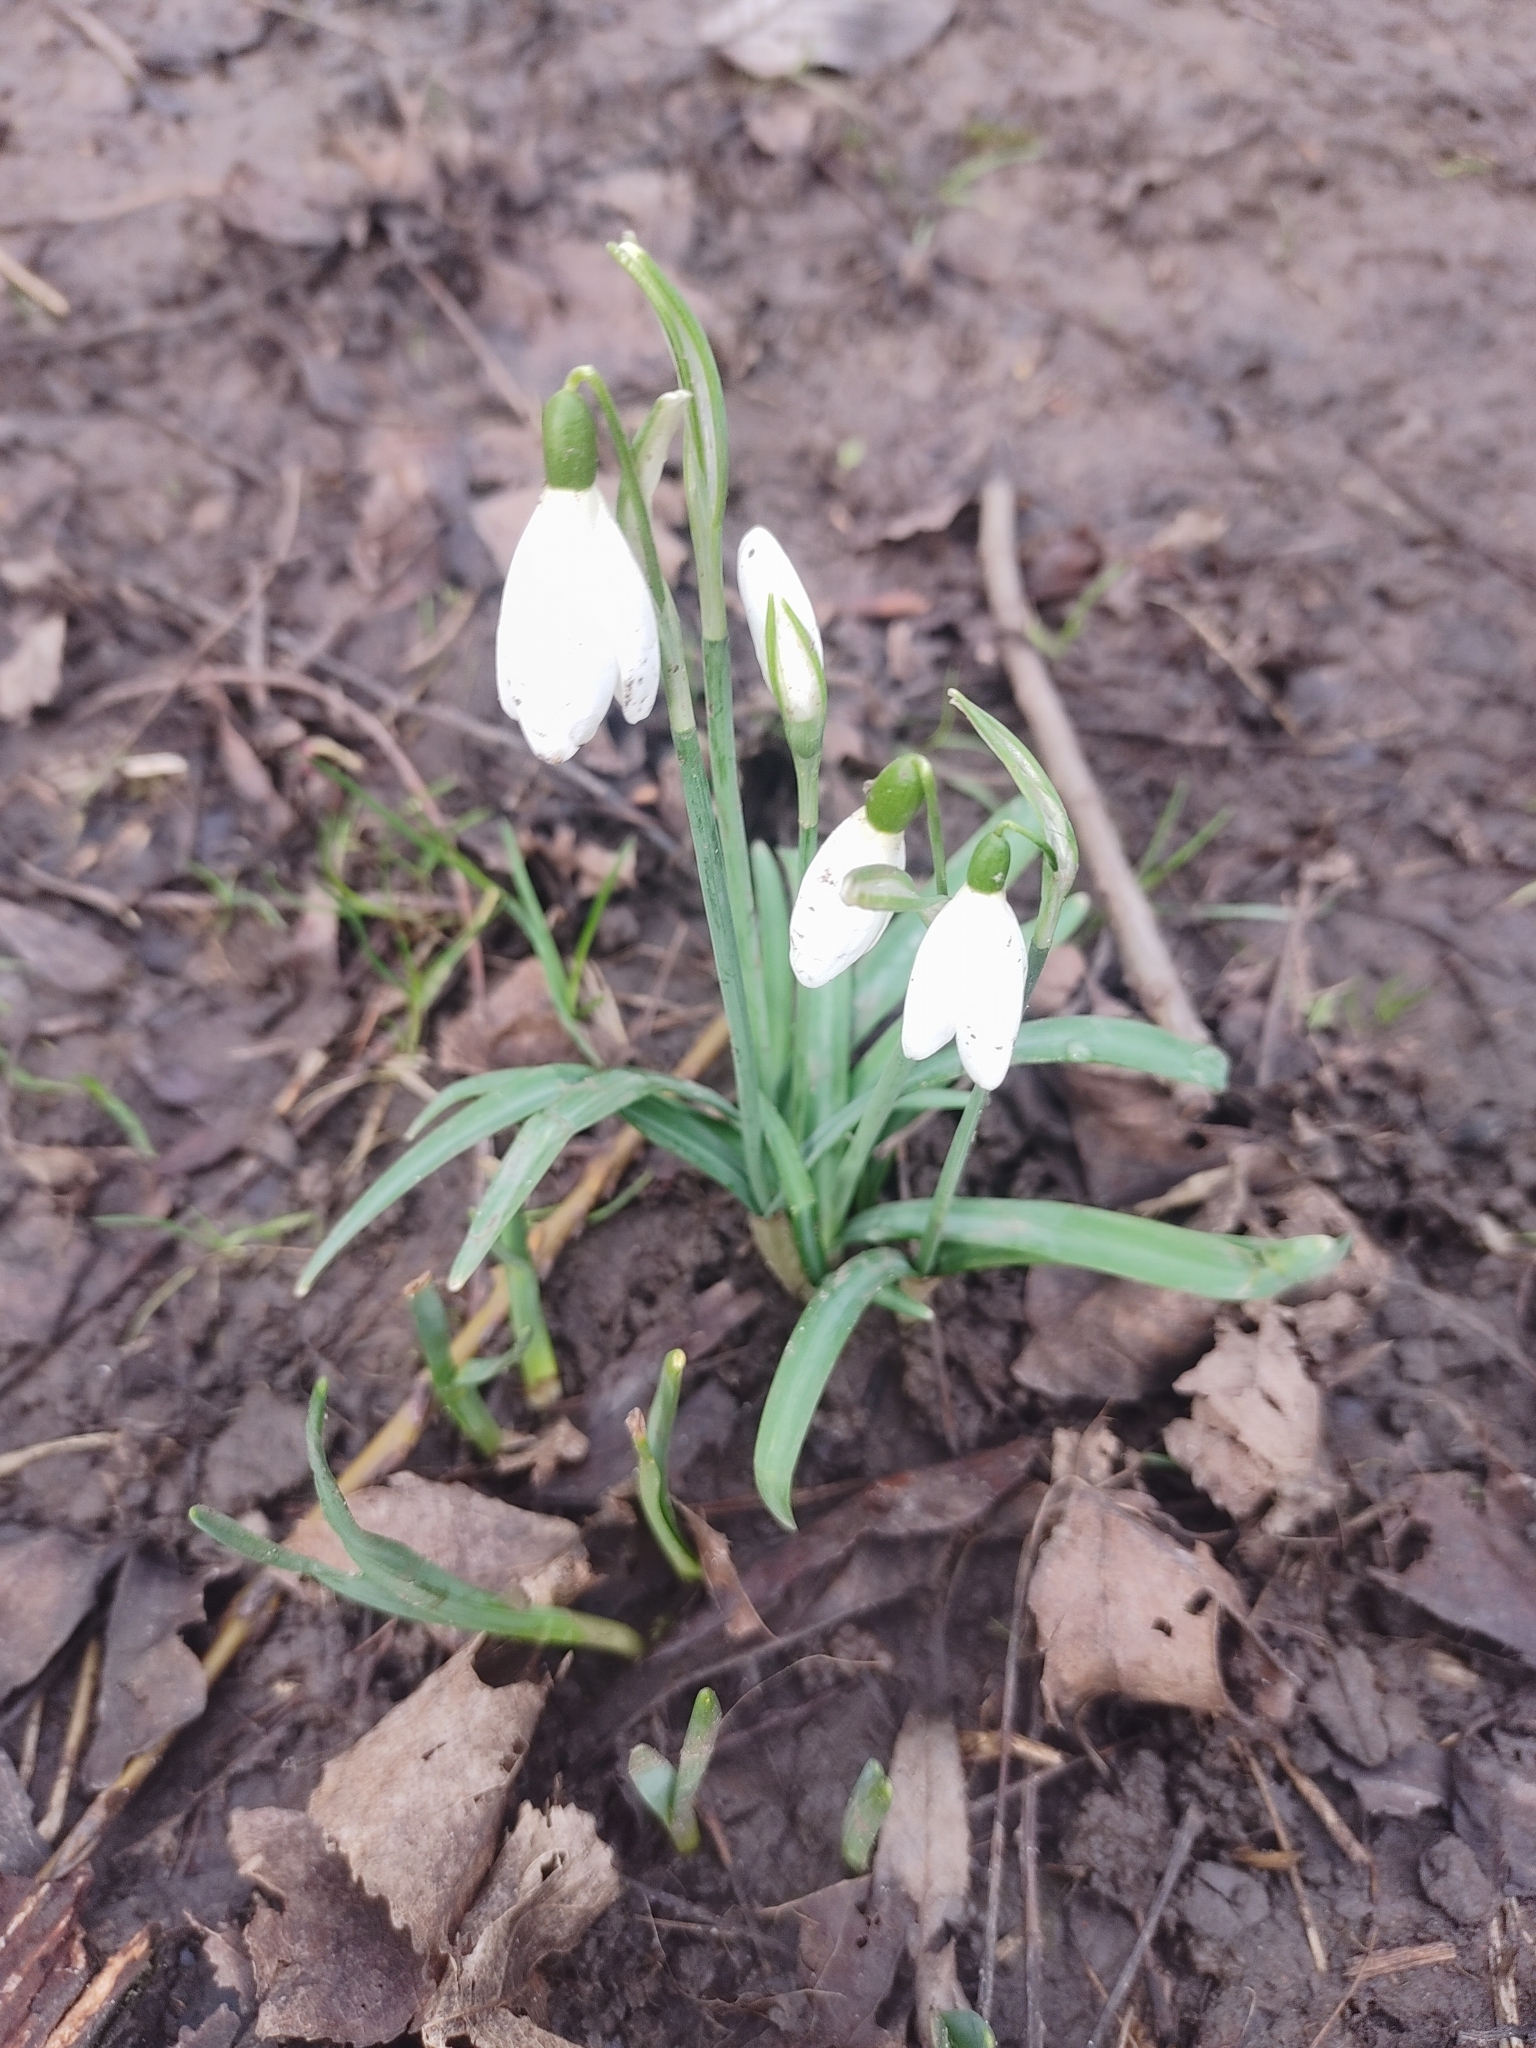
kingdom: Plantae
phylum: Tracheophyta
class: Liliopsida
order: Asparagales
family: Amaryllidaceae
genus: Galanthus
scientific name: Galanthus nivalis
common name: Snowdrop
